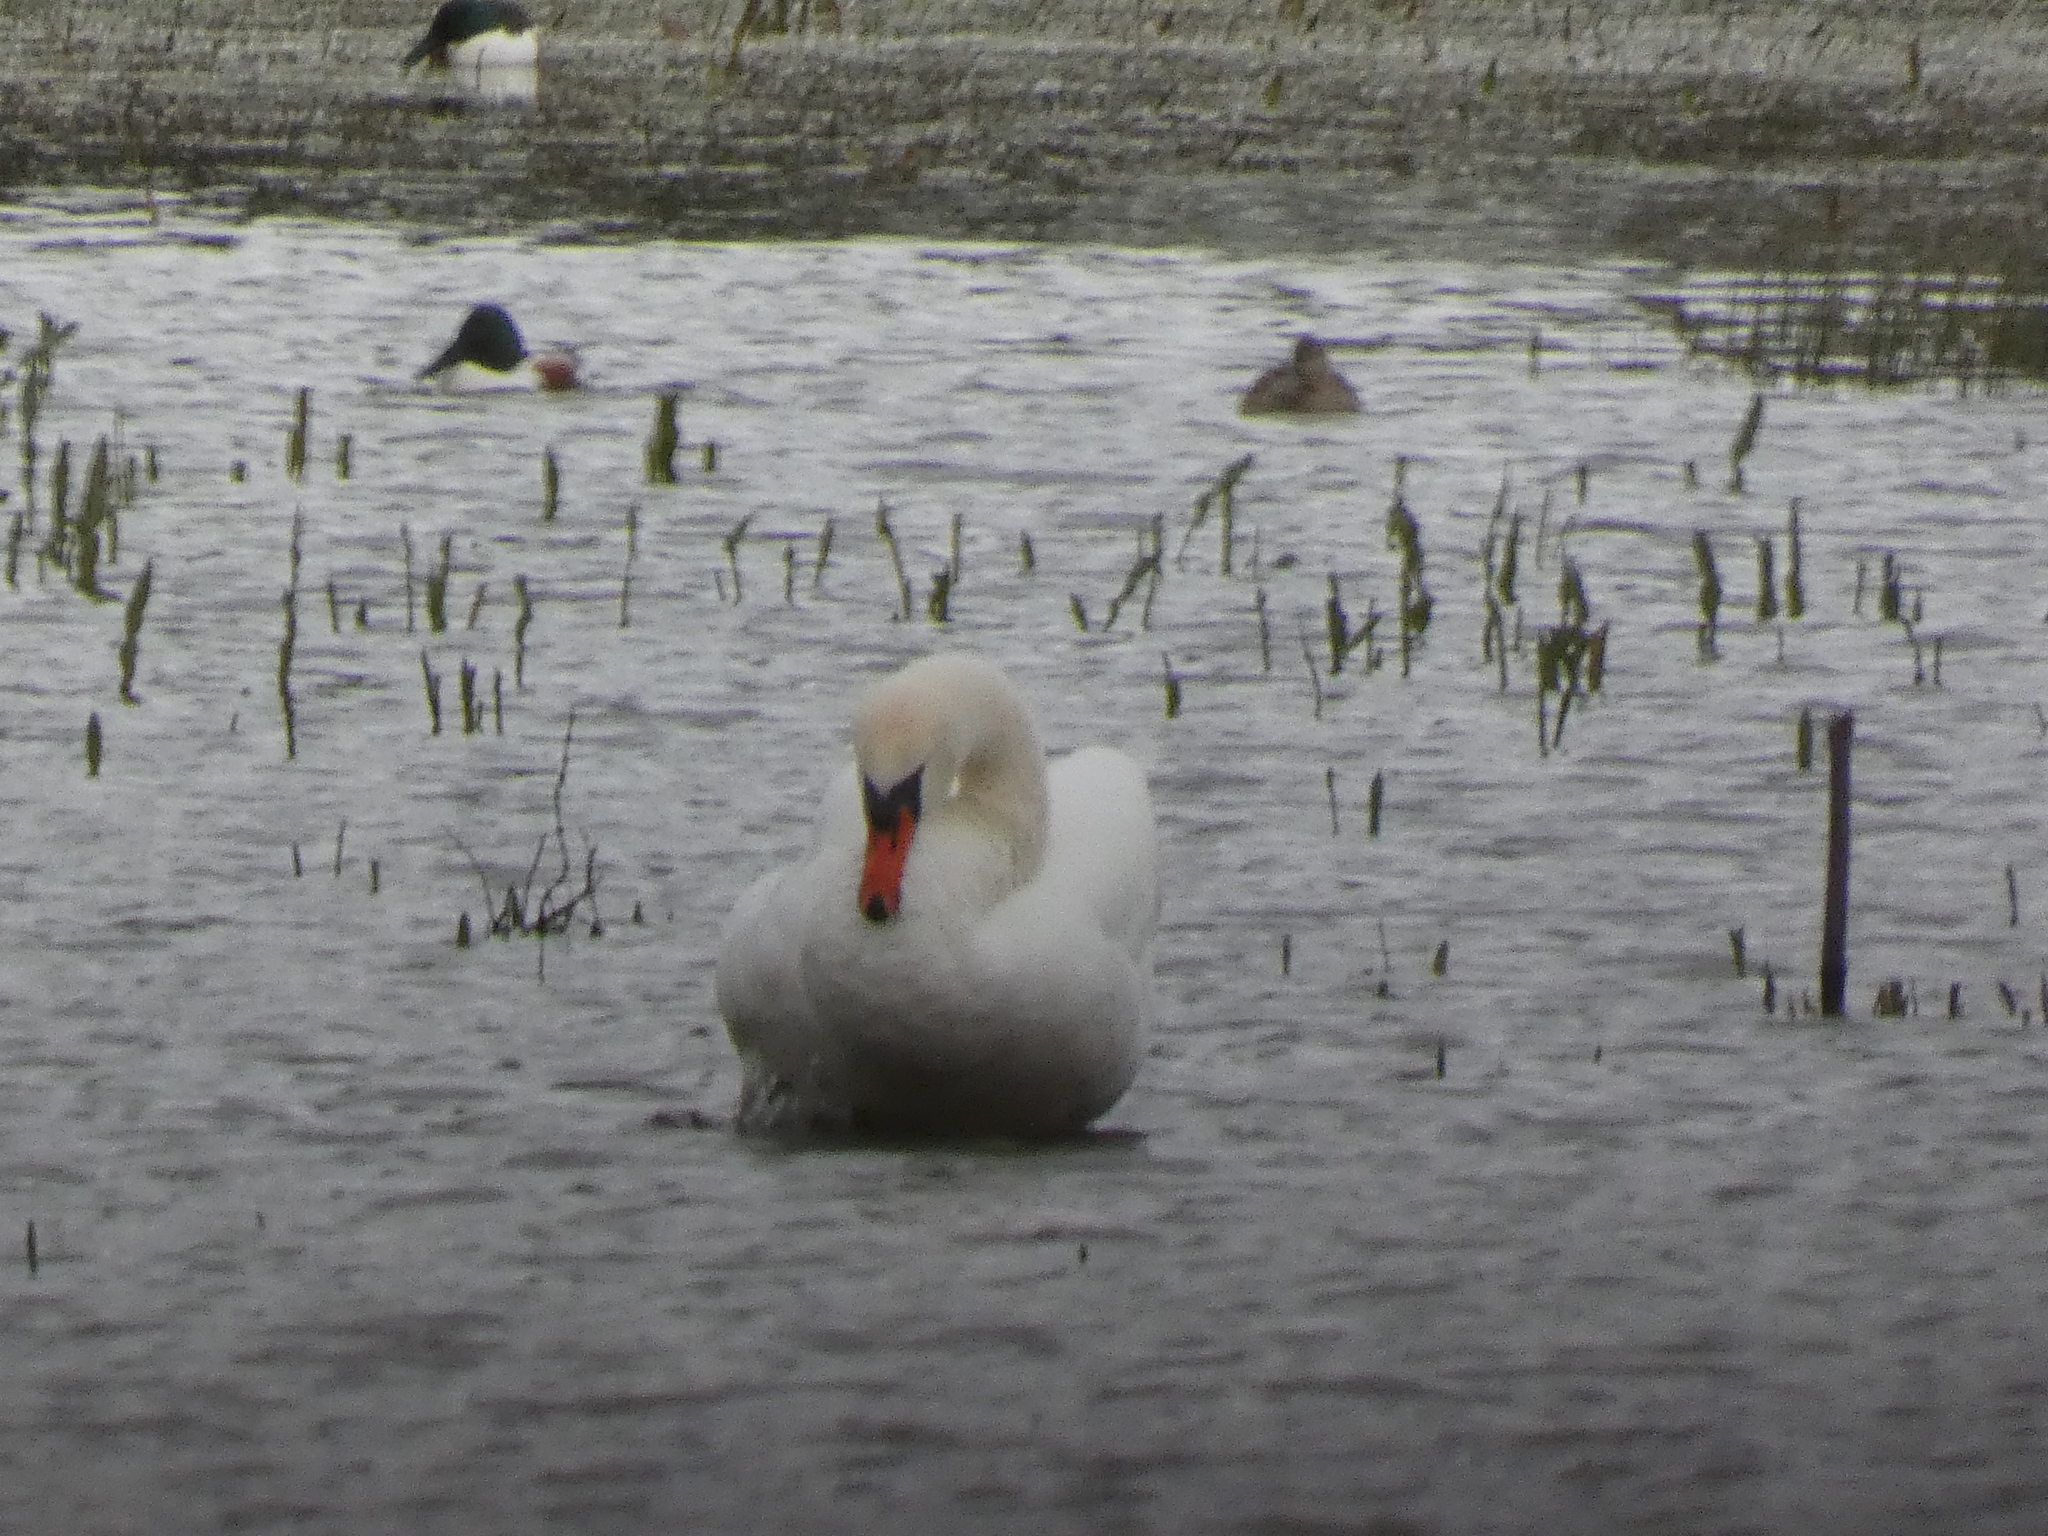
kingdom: Animalia
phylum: Chordata
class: Aves
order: Anseriformes
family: Anatidae
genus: Cygnus
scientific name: Cygnus olor
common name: Mute swan
